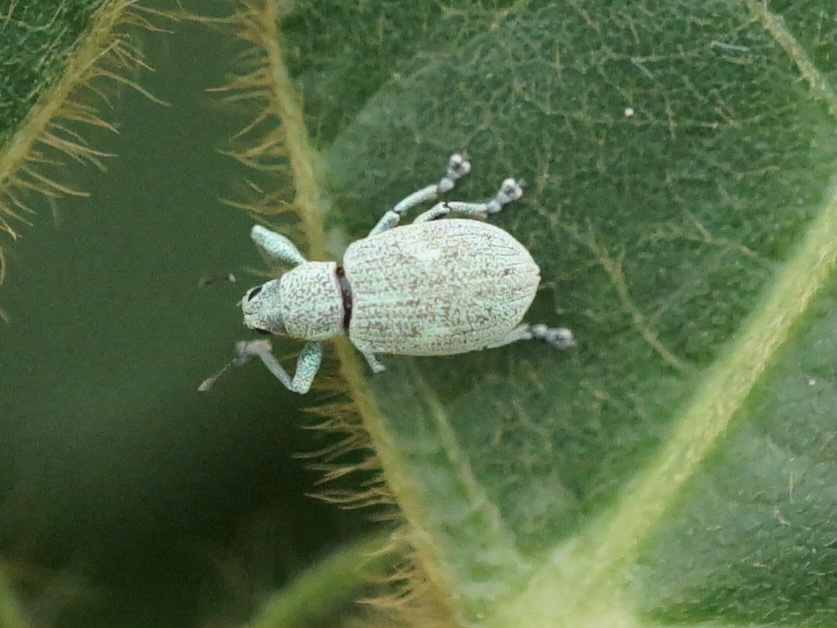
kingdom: Animalia
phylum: Arthropoda
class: Insecta
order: Coleoptera
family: Curculionidae
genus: Eugnathus
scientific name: Eugnathus distinctus
